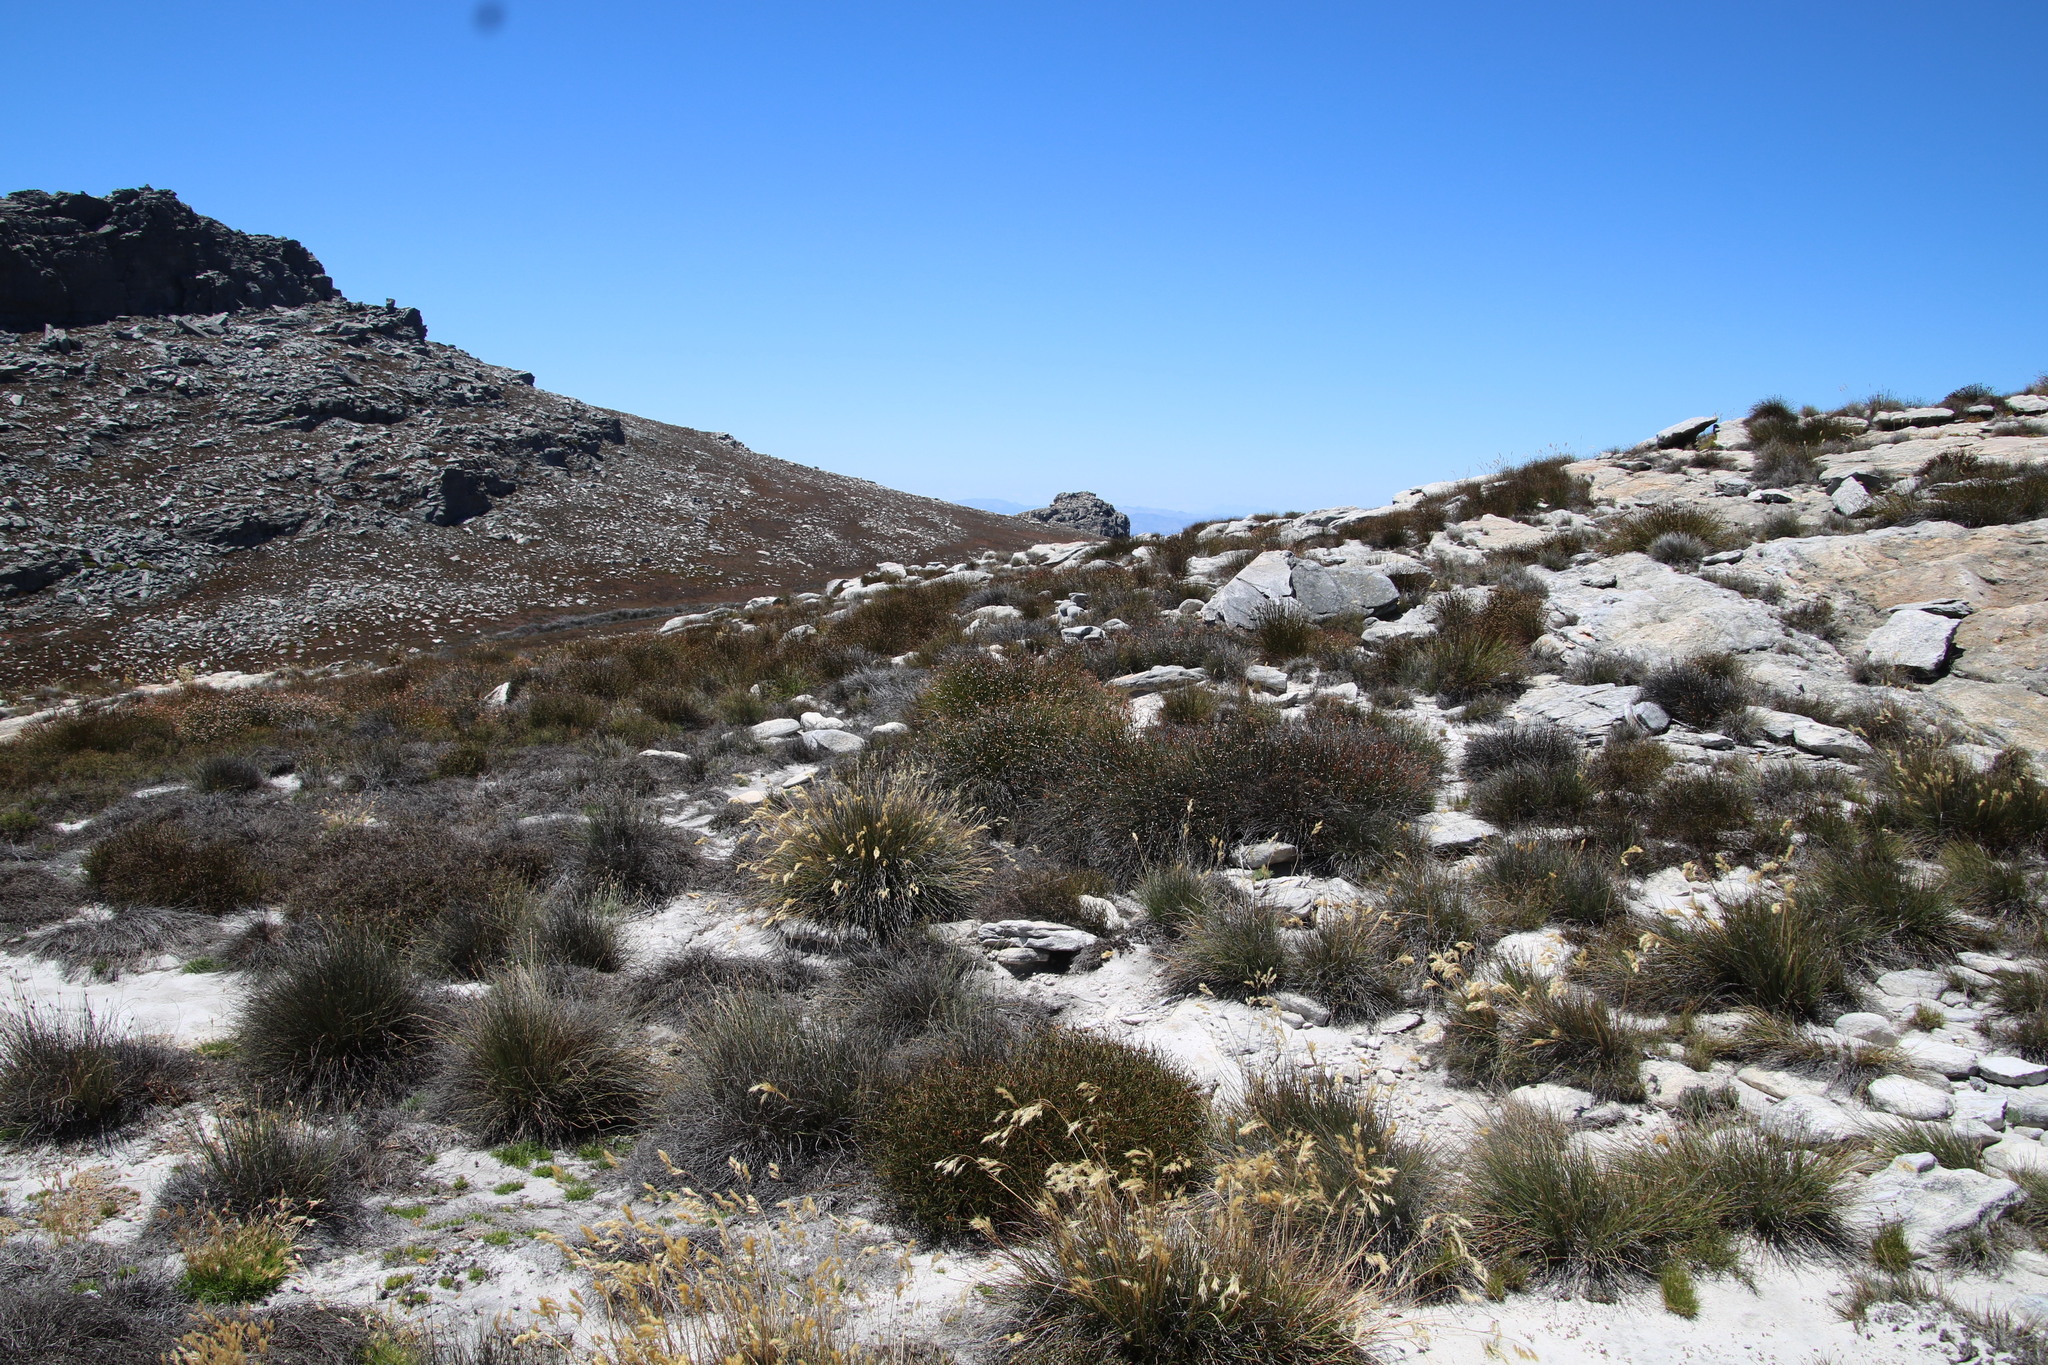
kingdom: Plantae
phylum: Tracheophyta
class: Liliopsida
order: Poales
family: Restionaceae
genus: Elegia
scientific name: Elegia esterhuyseniae
